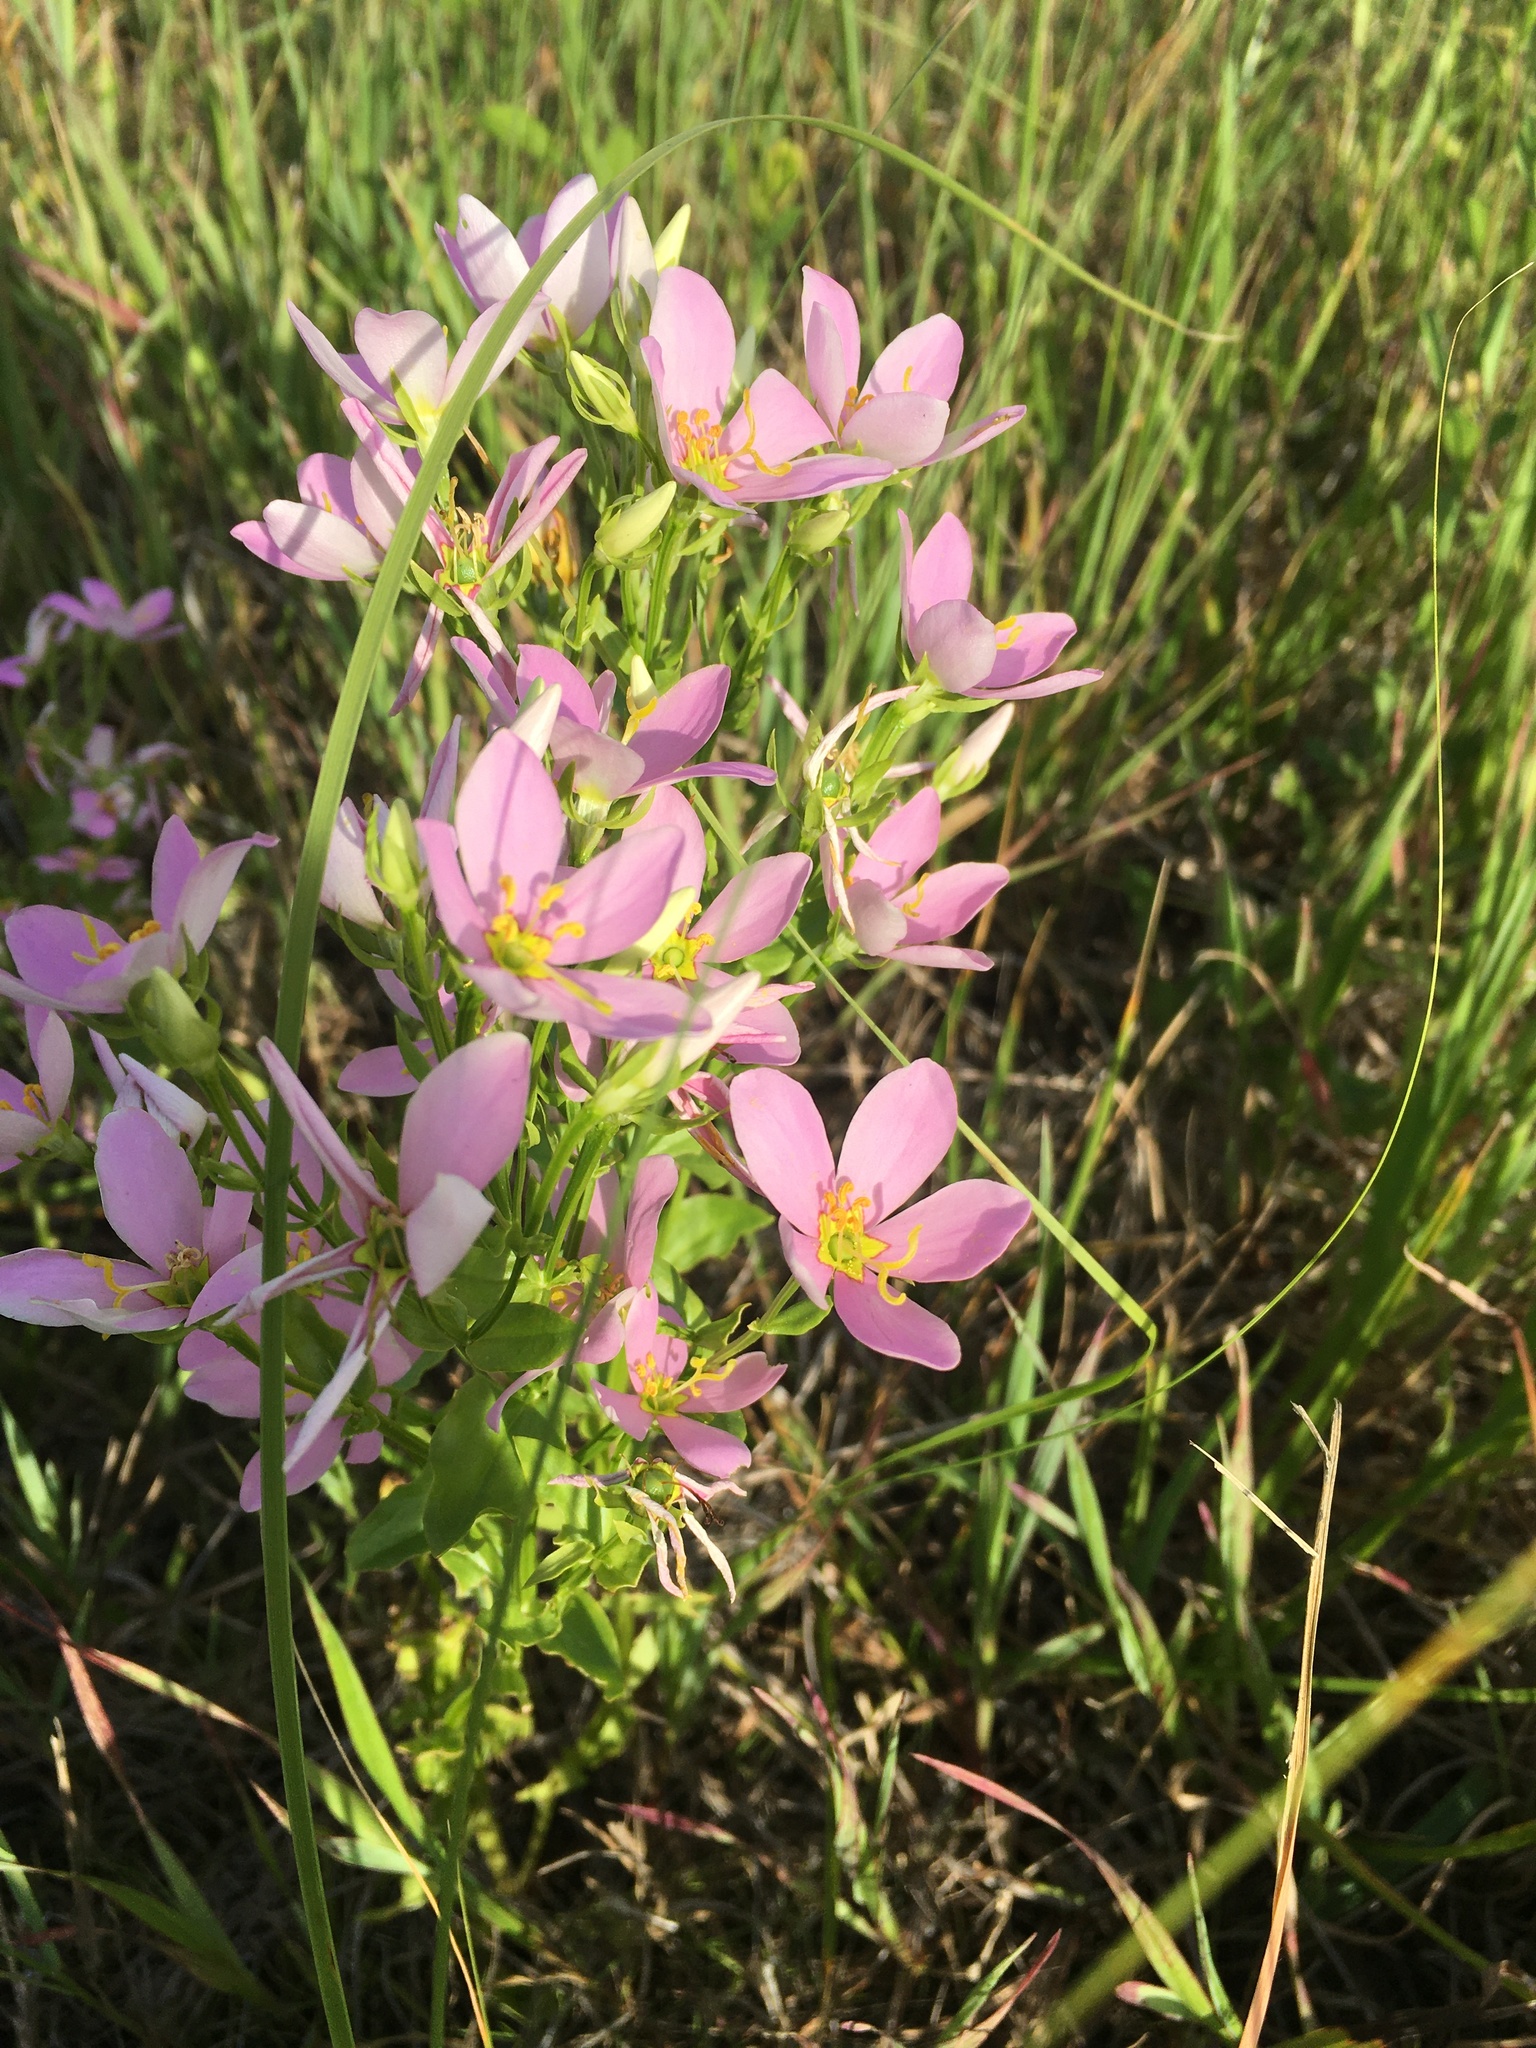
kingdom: Plantae
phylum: Tracheophyta
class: Magnoliopsida
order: Gentianales
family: Gentianaceae
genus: Sabatia
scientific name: Sabatia angularis
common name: Rose-pink
